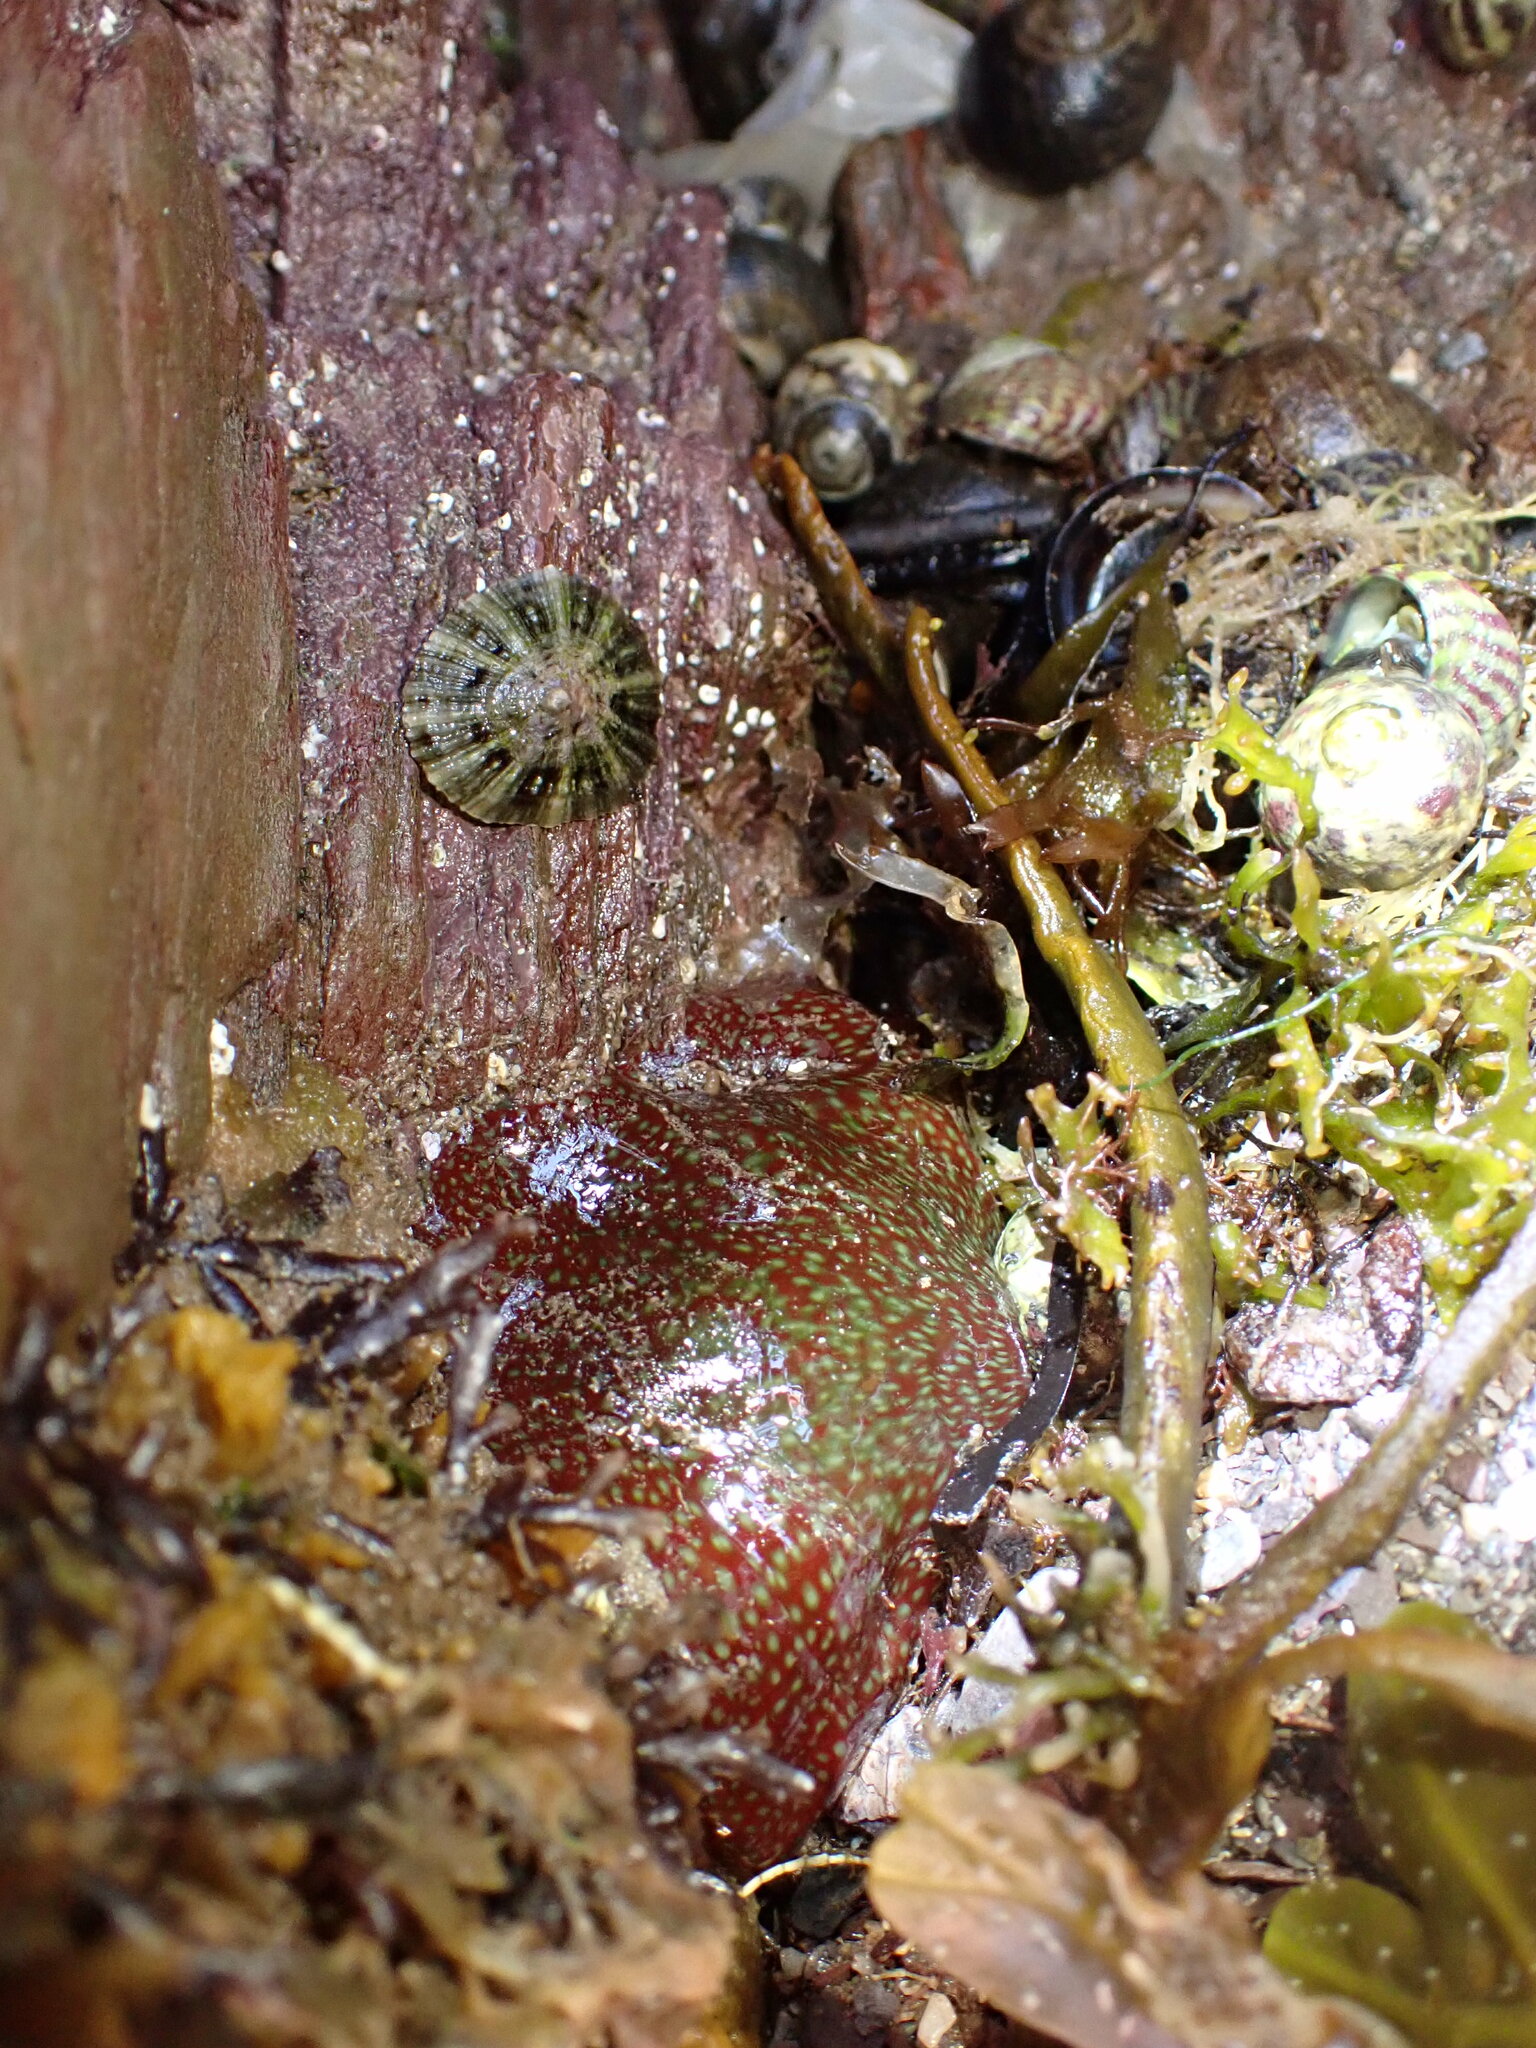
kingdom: Animalia
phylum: Cnidaria
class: Anthozoa
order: Actiniaria
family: Actiniidae
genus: Actinia
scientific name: Actinia fragacea
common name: Strawberry anemone
